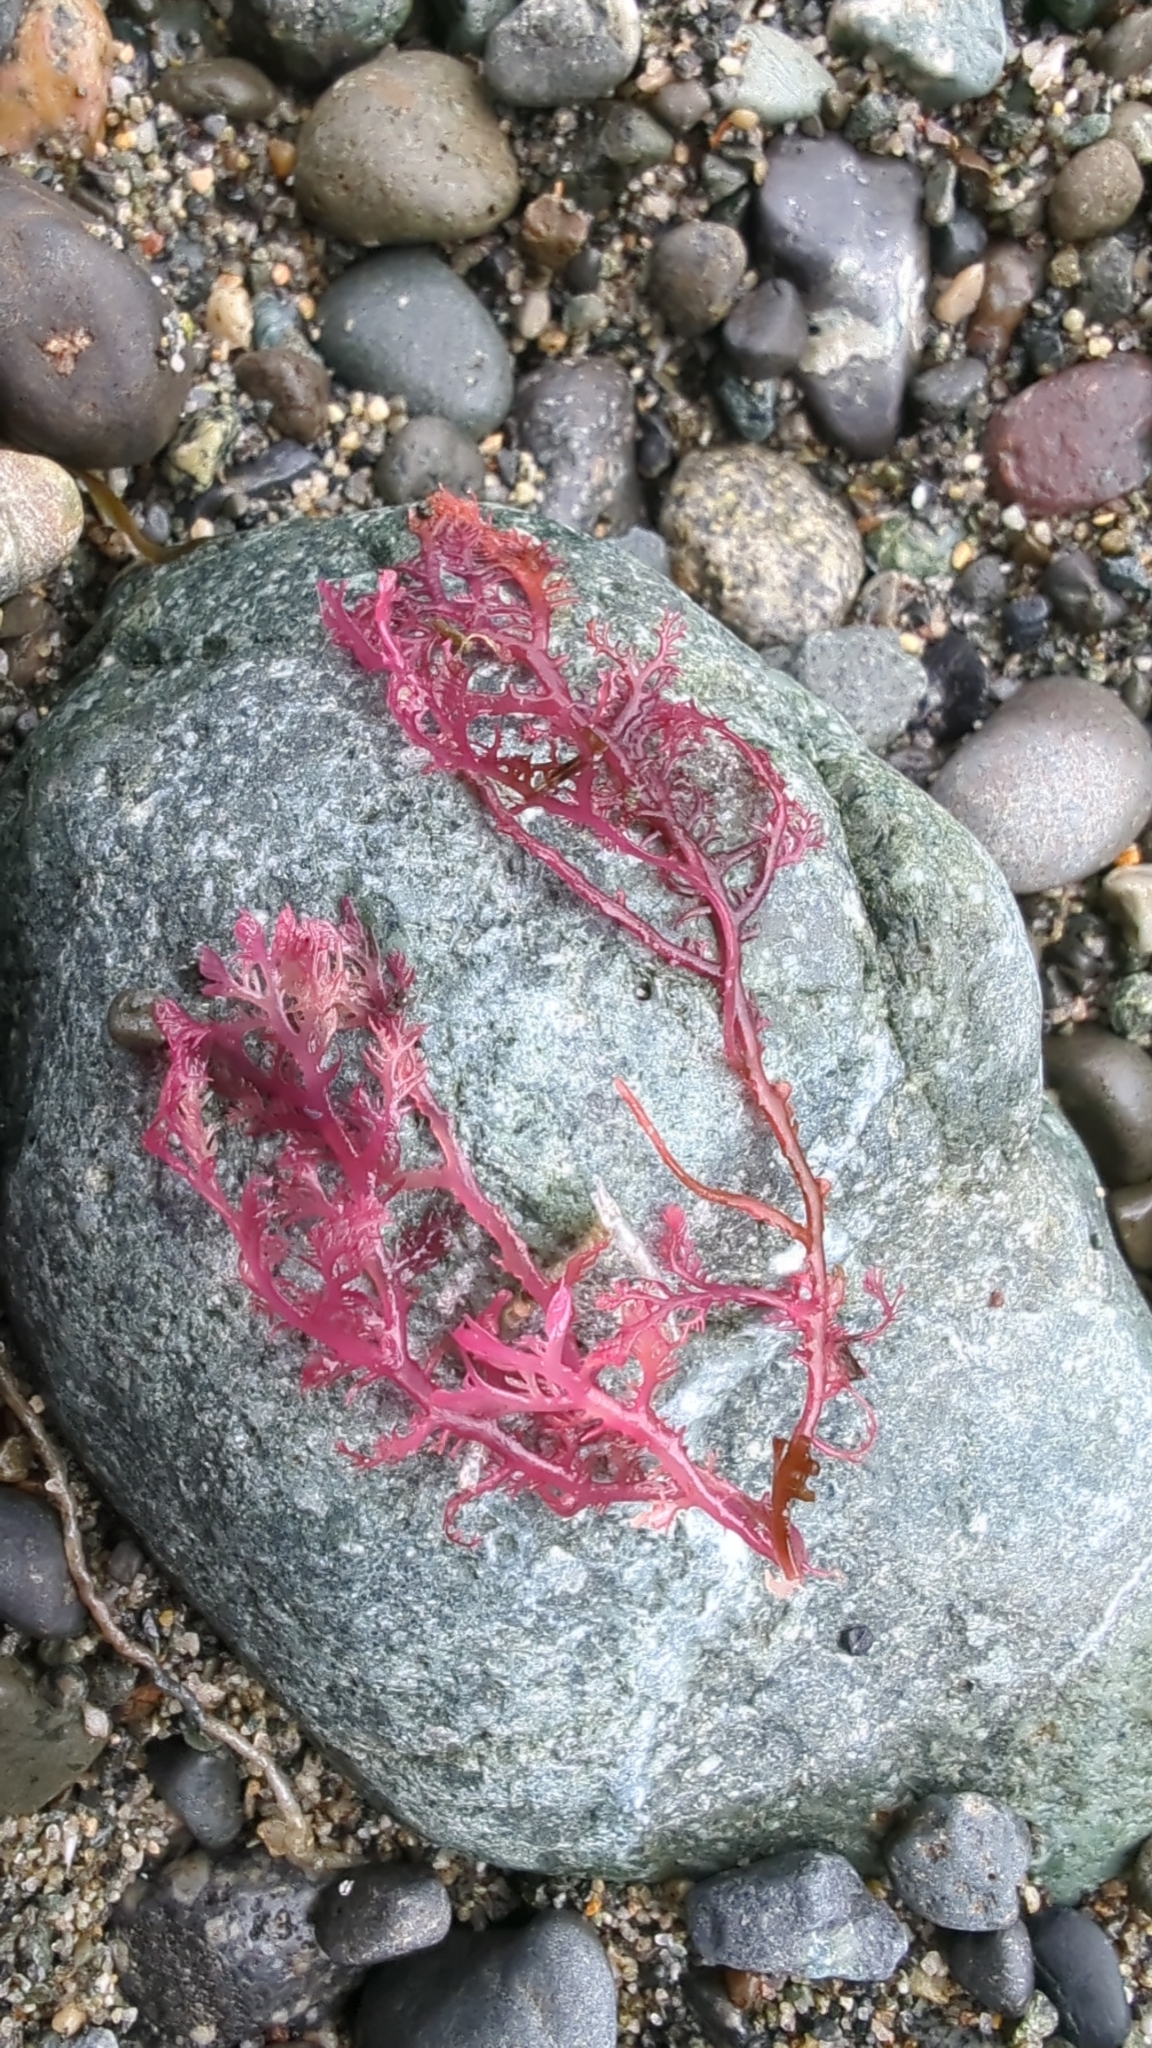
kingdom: Plantae
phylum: Rhodophyta
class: Florideophyceae
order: Plocamiales
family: Plocamiaceae
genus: Plocamium
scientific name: Plocamium cartilagineum
